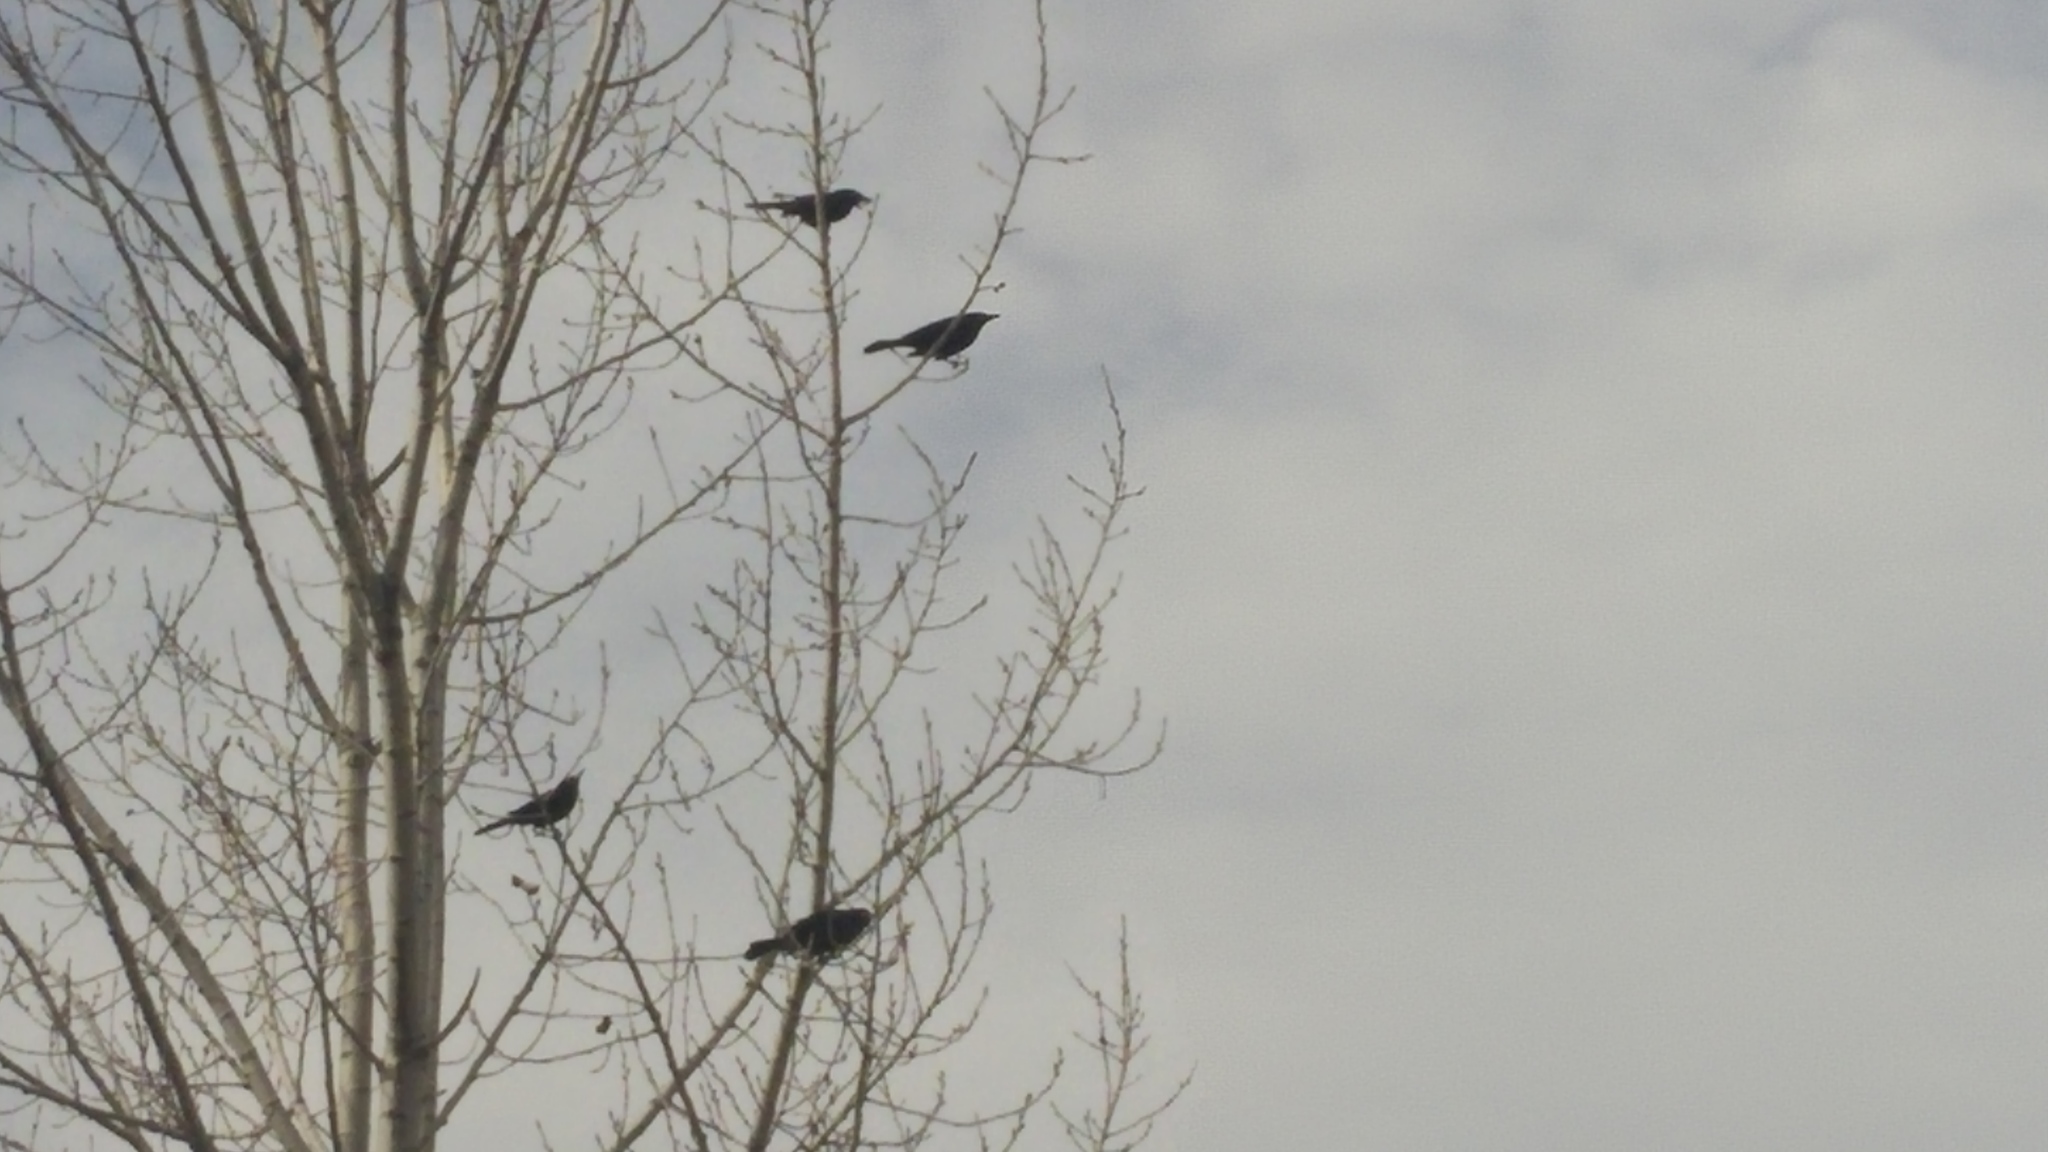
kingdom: Animalia
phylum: Chordata
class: Aves
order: Passeriformes
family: Icteridae
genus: Quiscalus
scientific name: Quiscalus quiscula
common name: Common grackle
